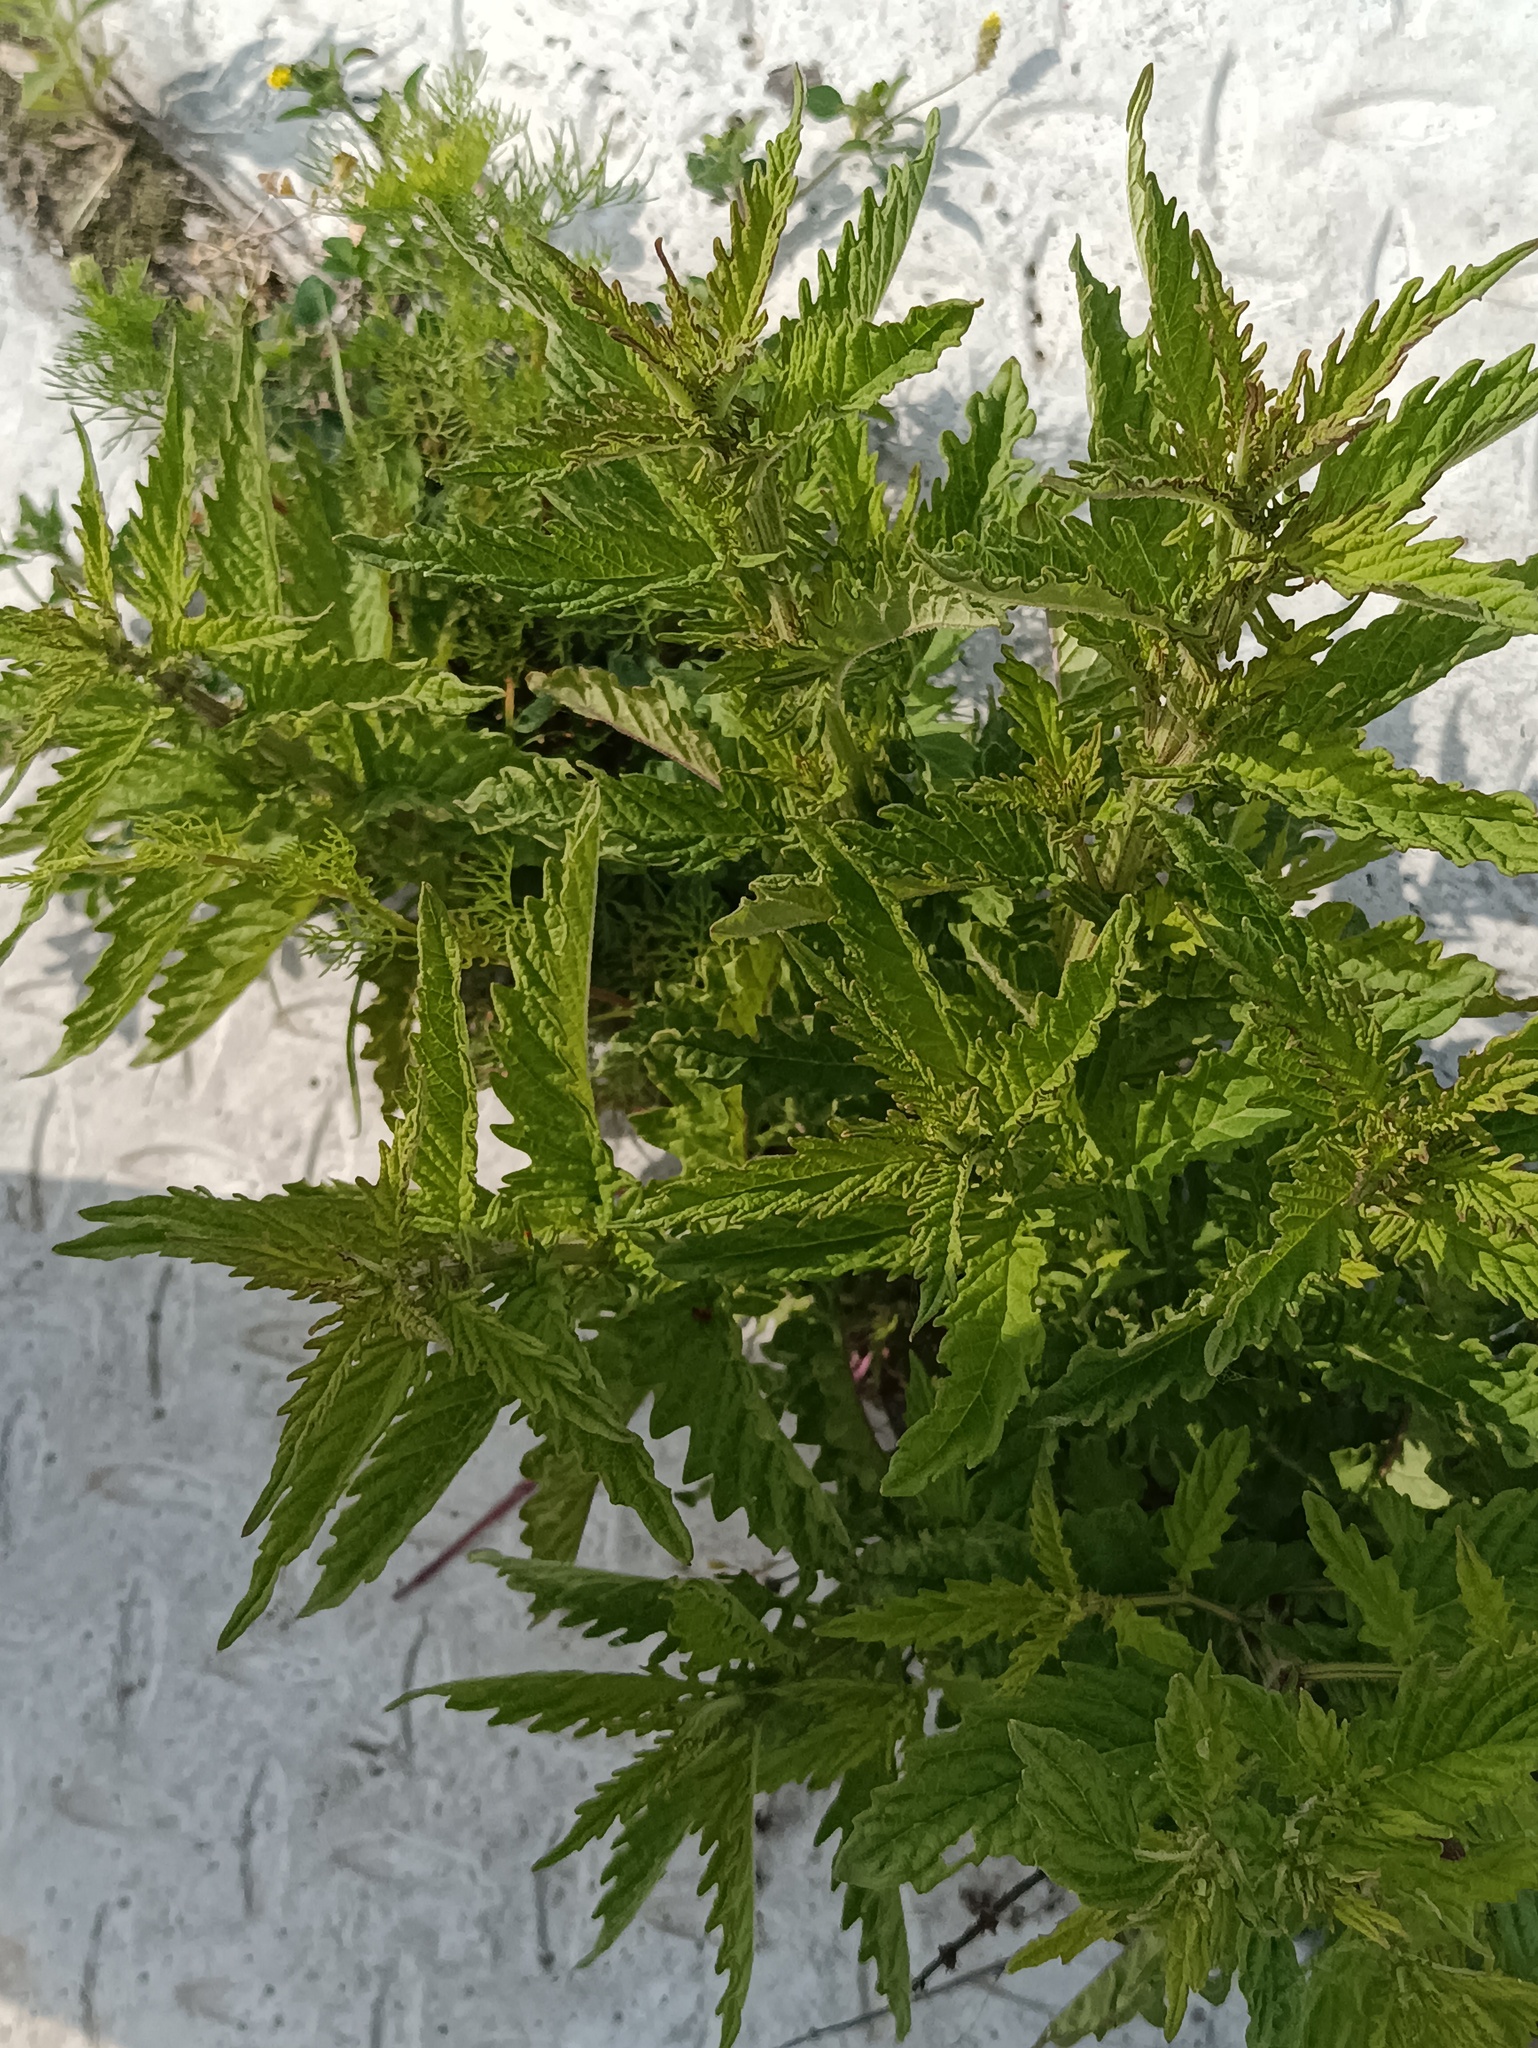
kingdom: Plantae
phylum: Tracheophyta
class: Magnoliopsida
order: Lamiales
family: Lamiaceae
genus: Lycopus
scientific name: Lycopus europaeus
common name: European bugleweed
